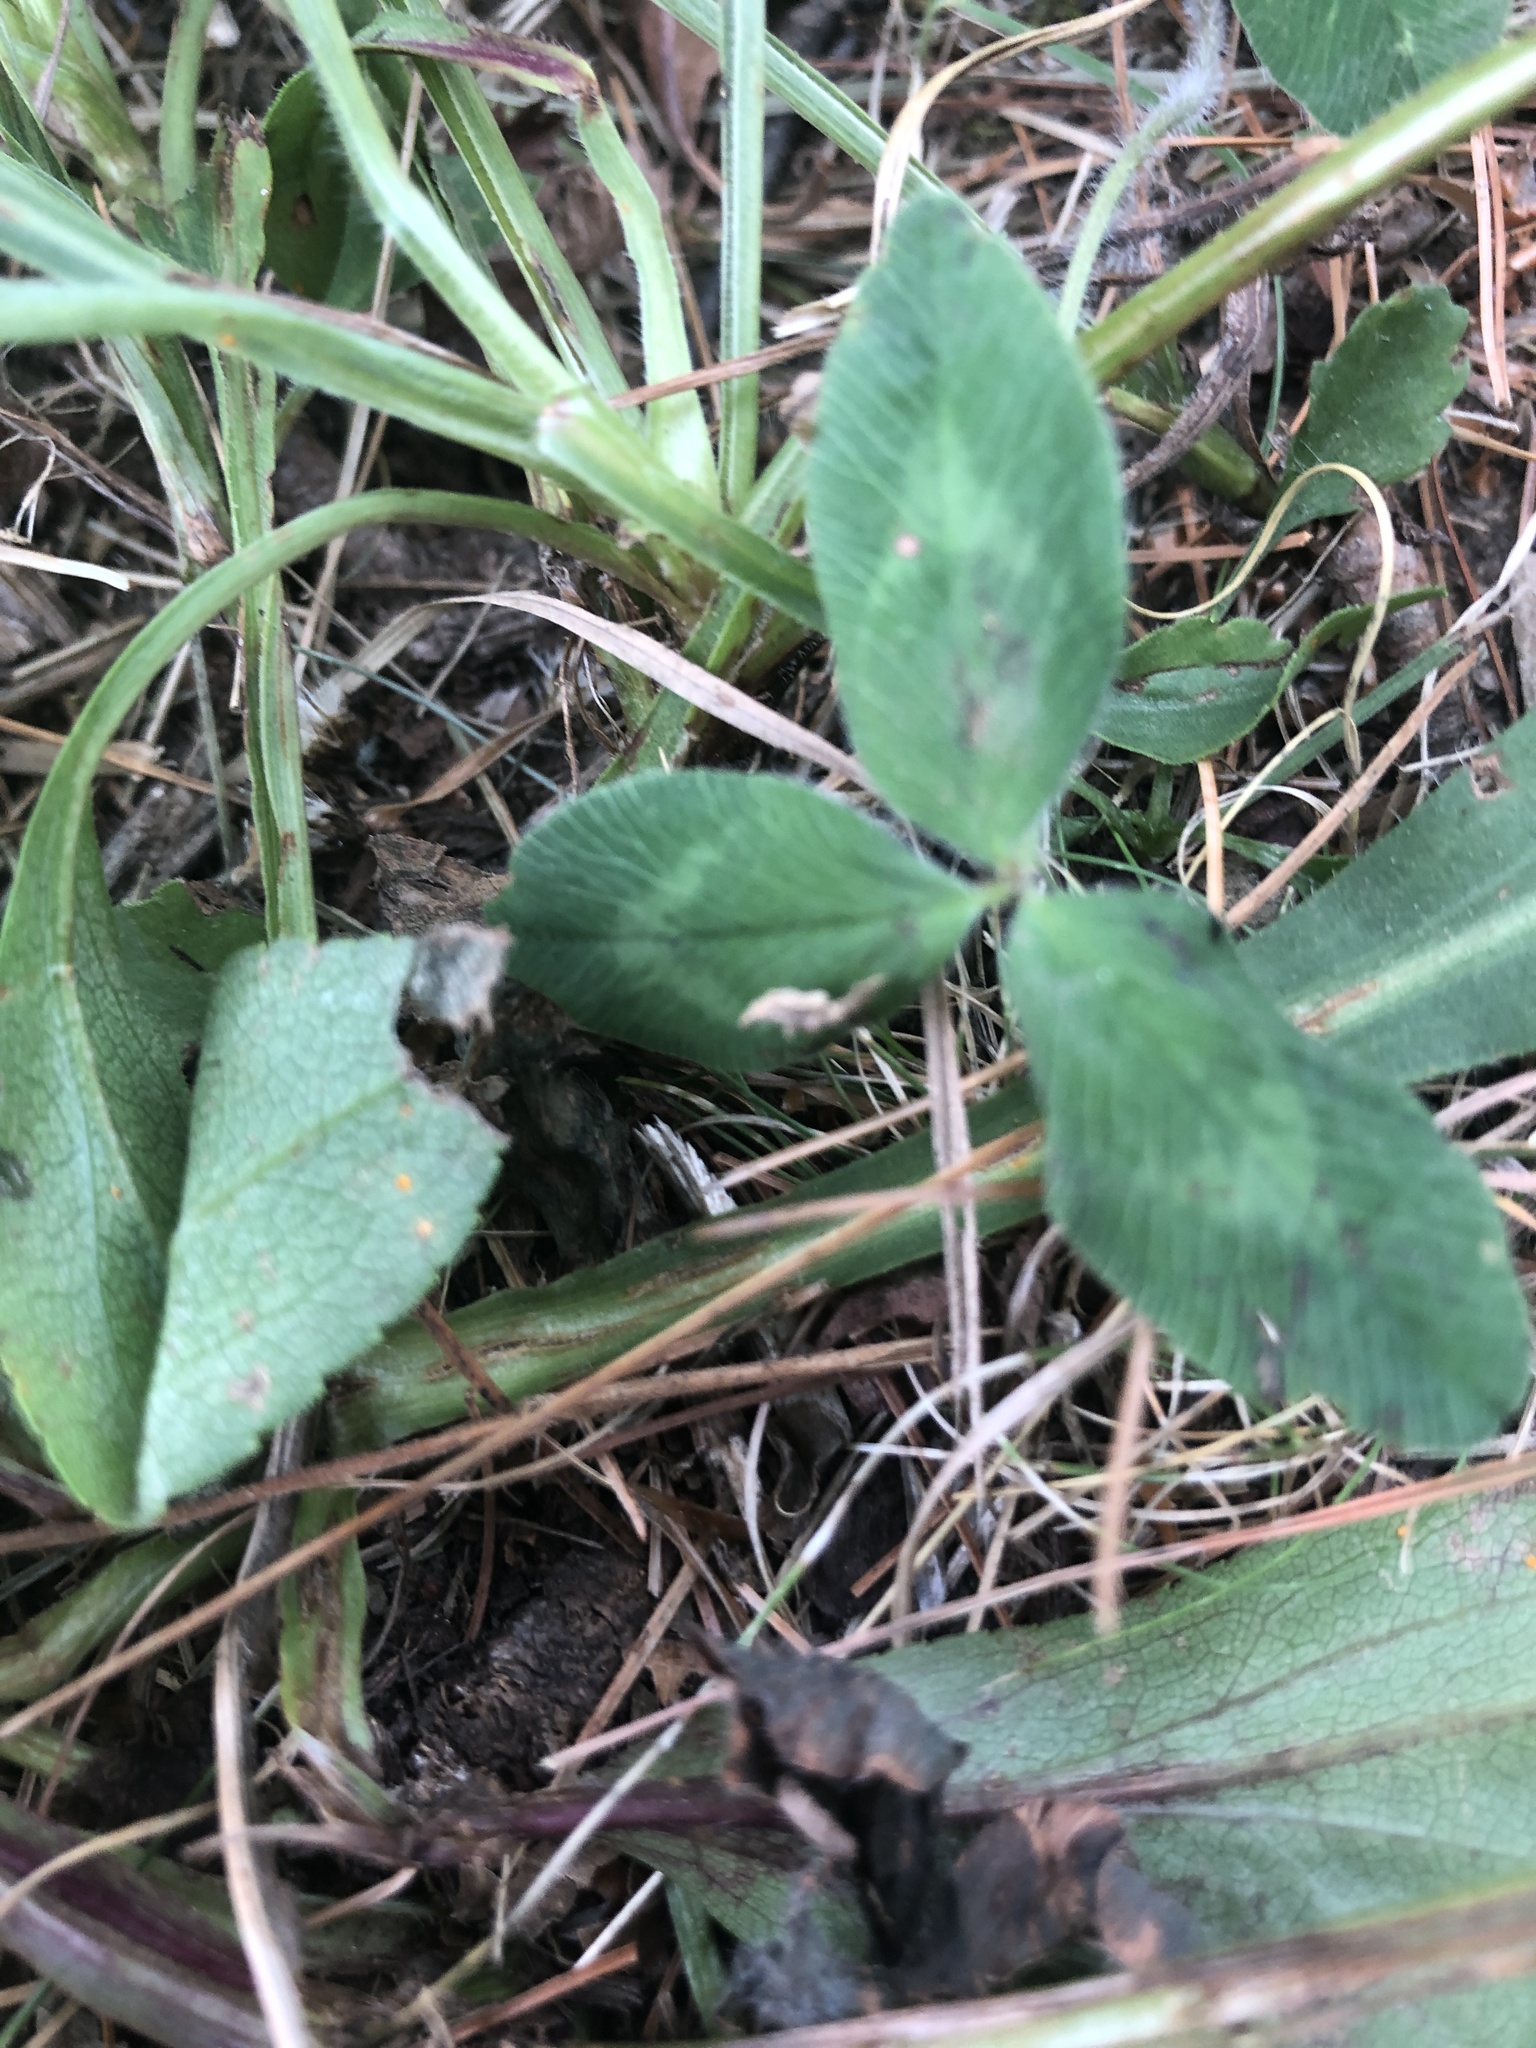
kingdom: Plantae
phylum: Tracheophyta
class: Magnoliopsida
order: Fabales
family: Fabaceae
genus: Trifolium
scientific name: Trifolium pratense
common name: Red clover
